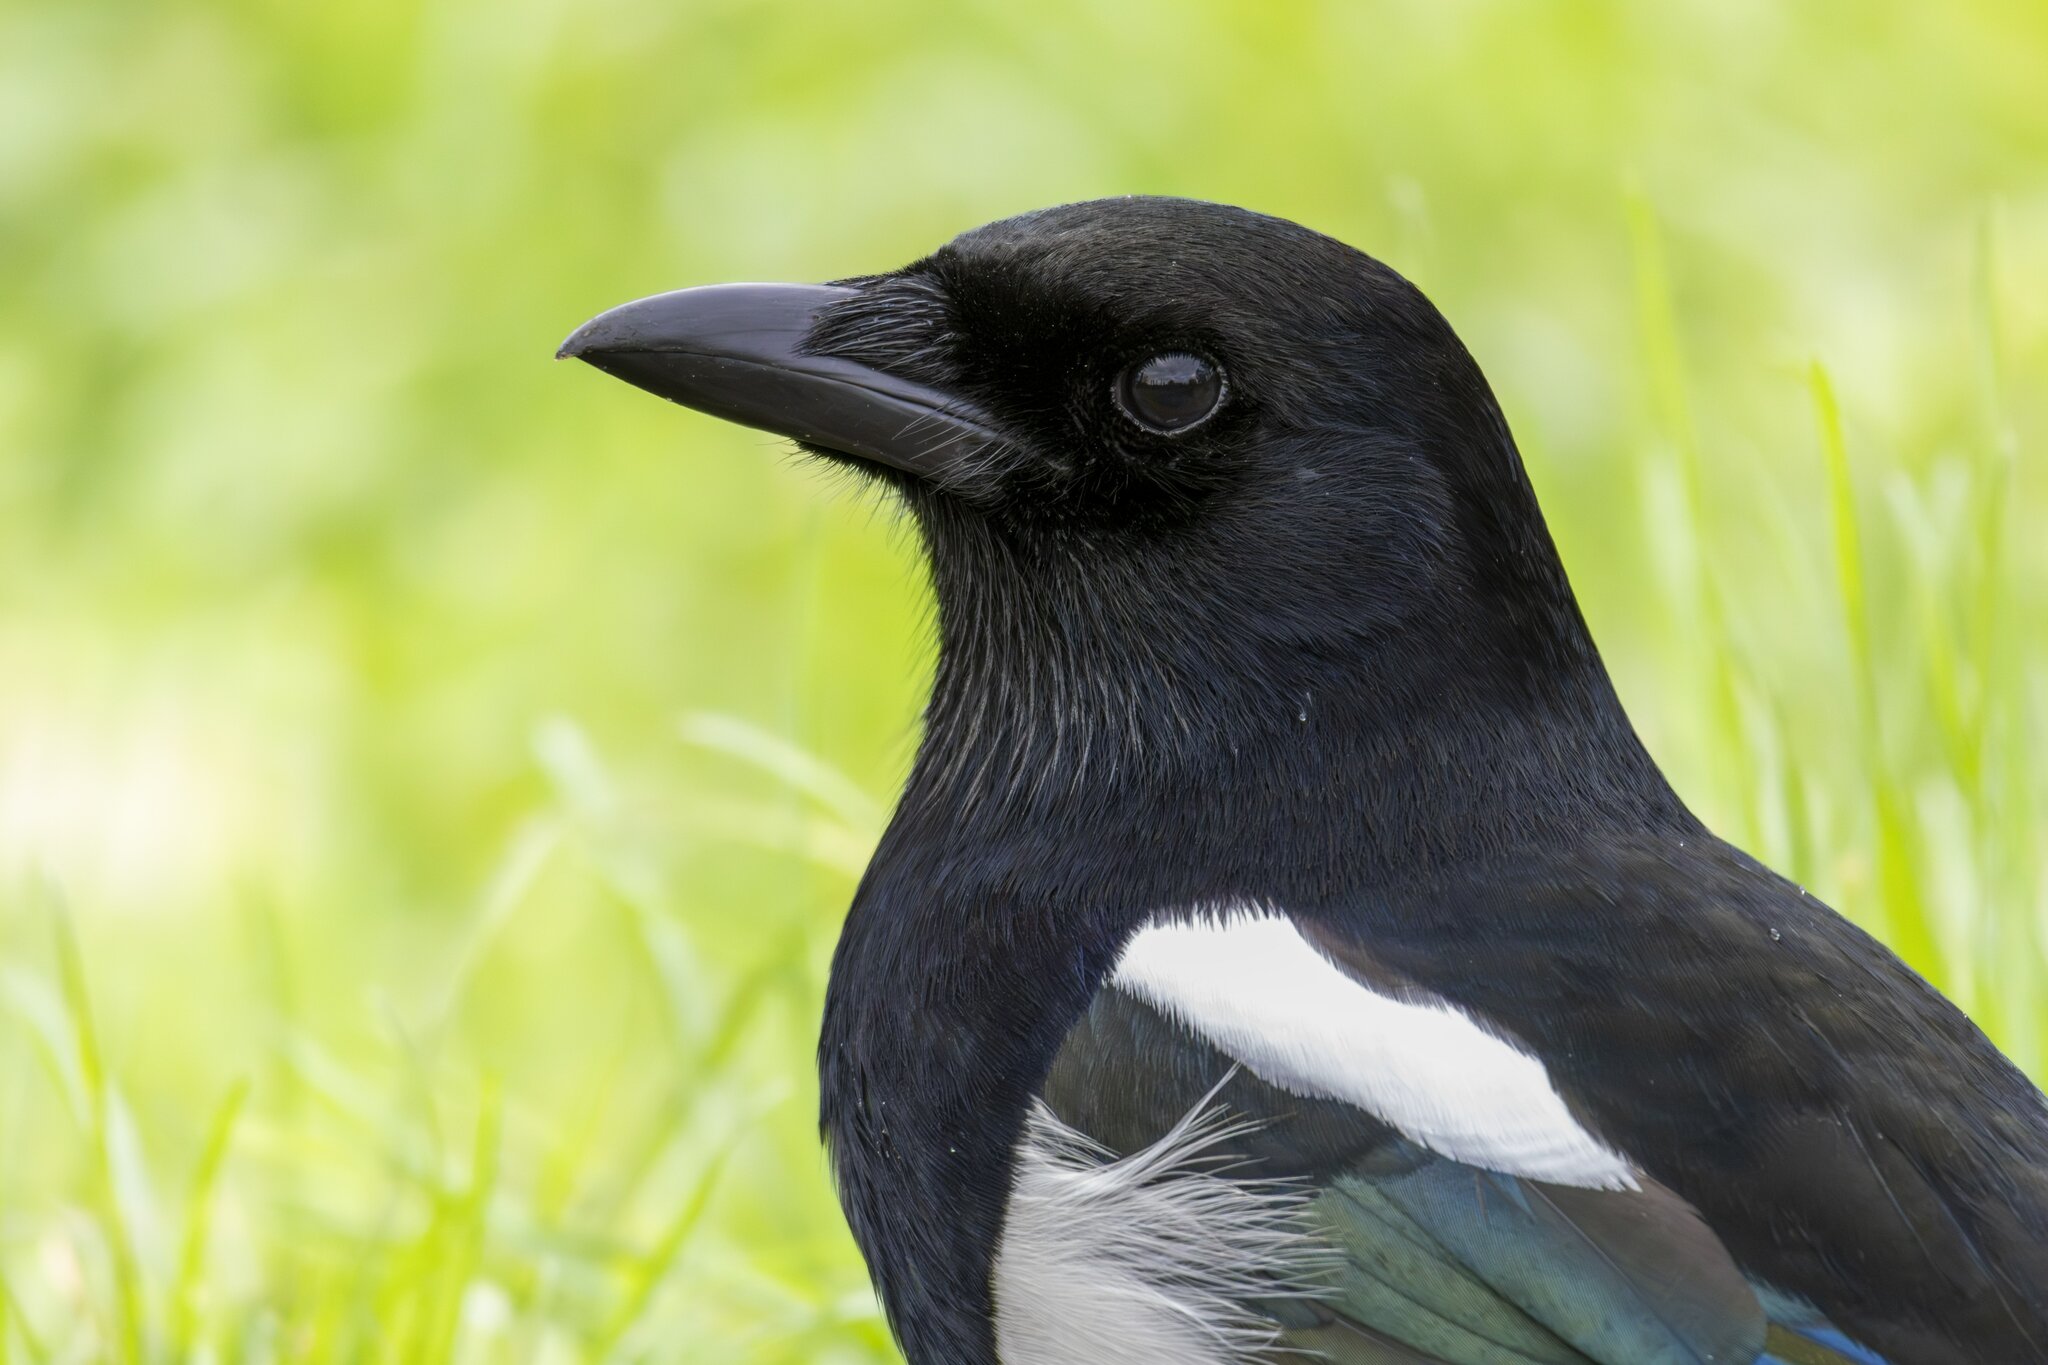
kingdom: Animalia
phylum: Chordata
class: Aves
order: Passeriformes
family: Corvidae
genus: Pica
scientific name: Pica pica
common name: Eurasian magpie
